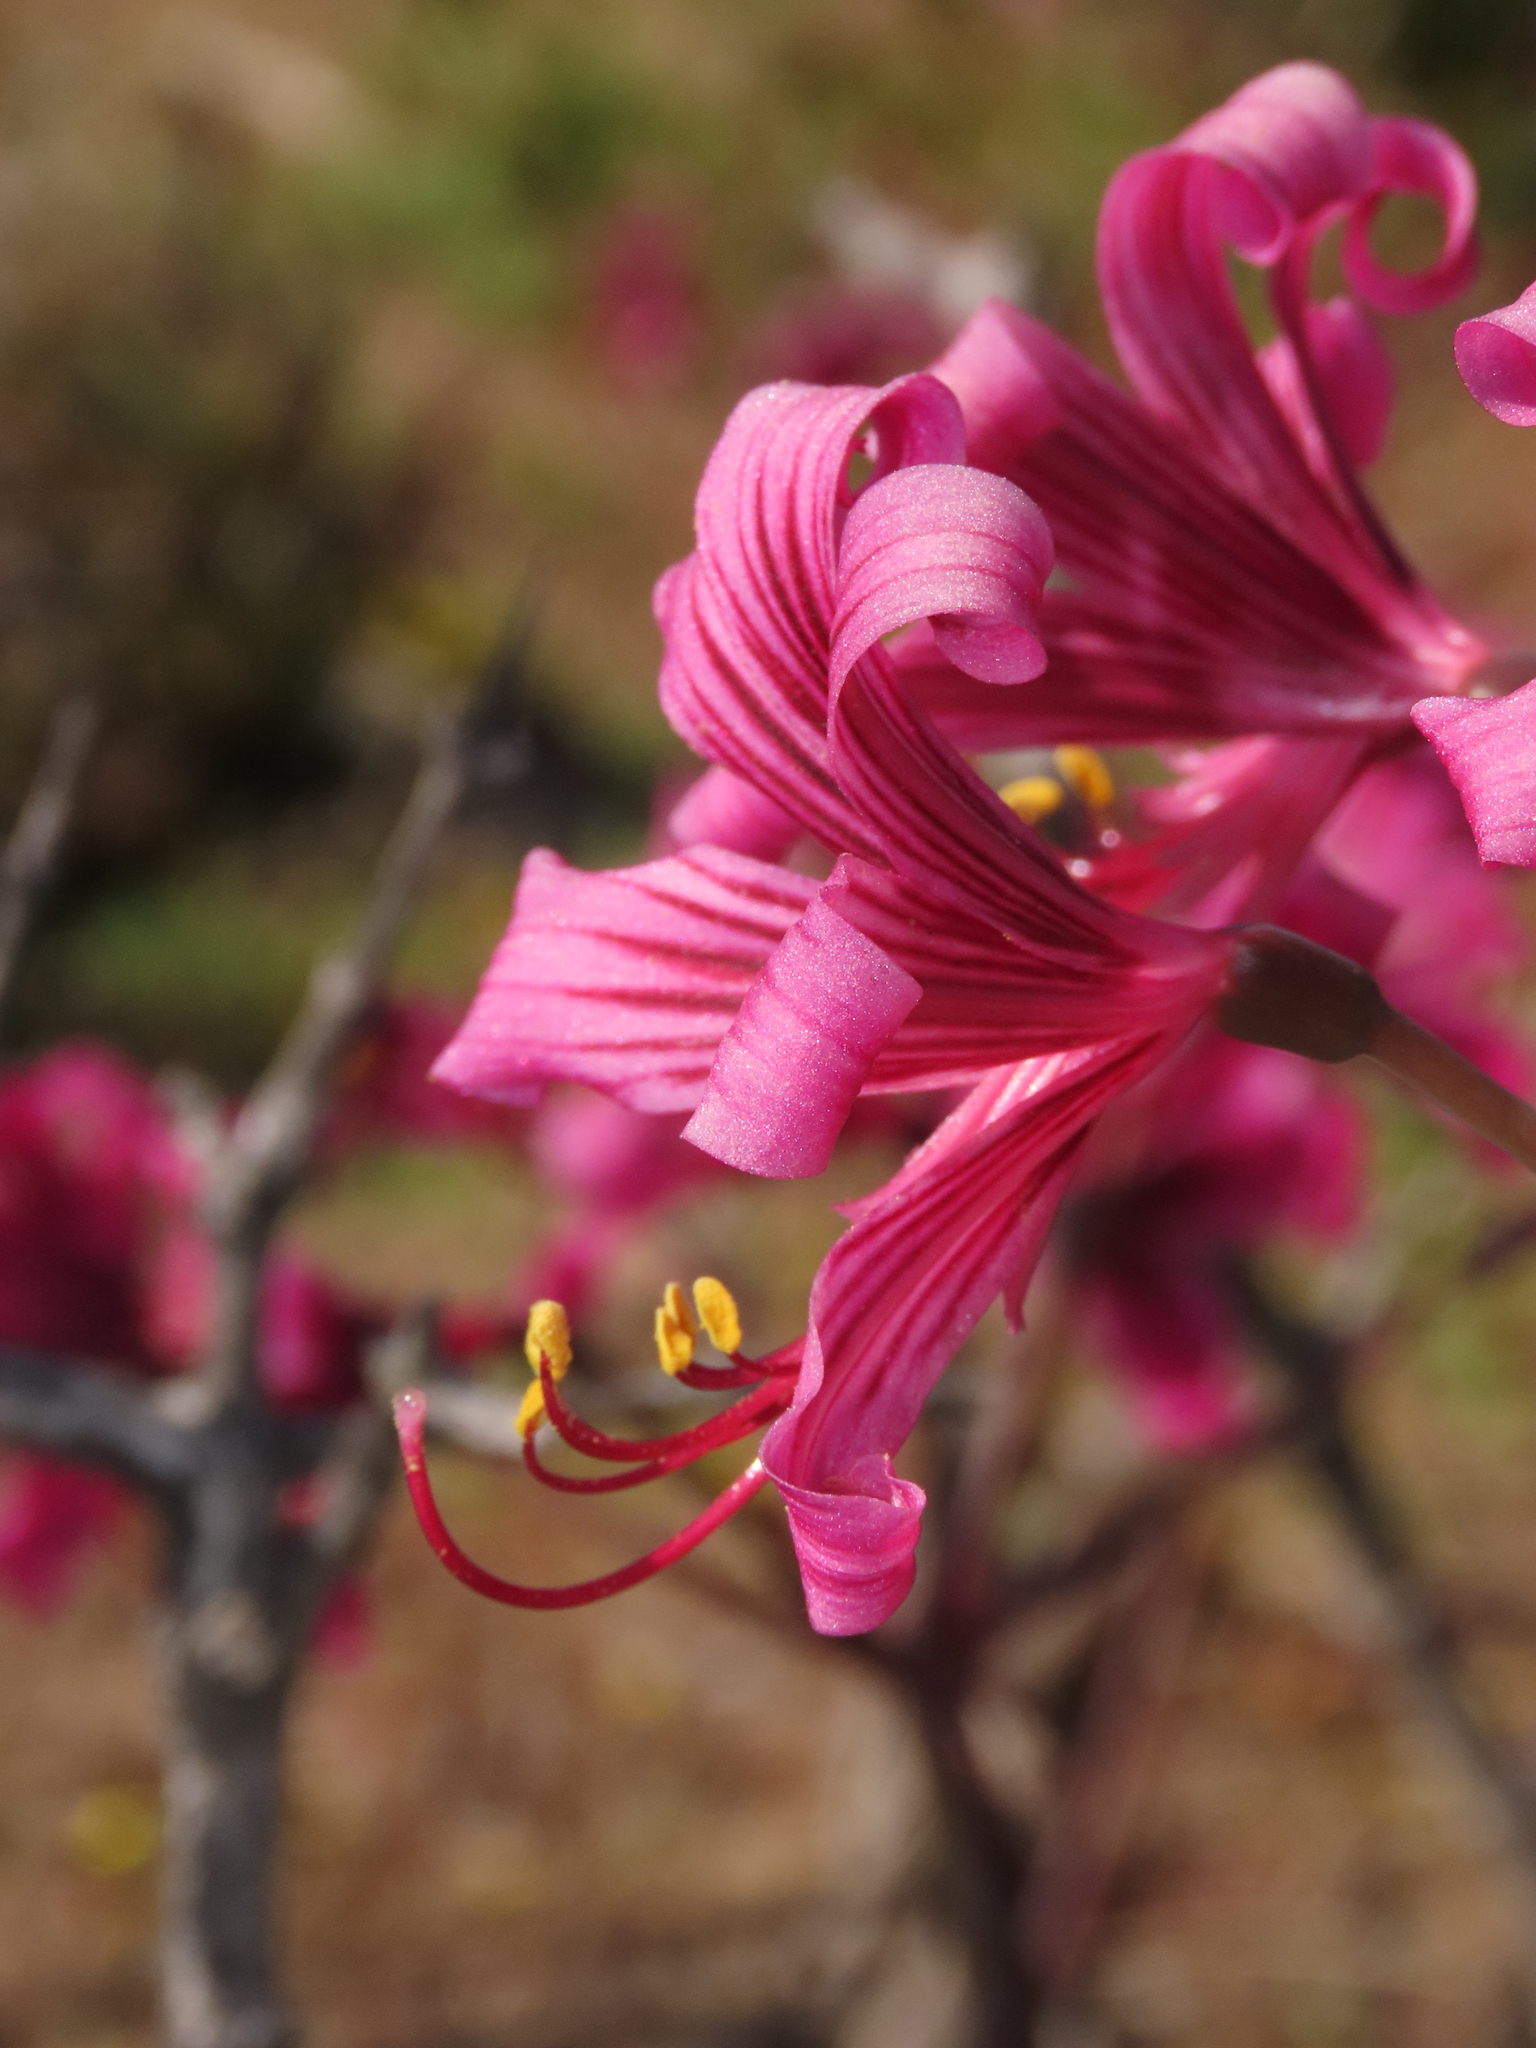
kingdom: Plantae
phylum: Tracheophyta
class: Liliopsida
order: Asparagales
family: Amaryllidaceae
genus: Phycella
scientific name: Phycella amoena
